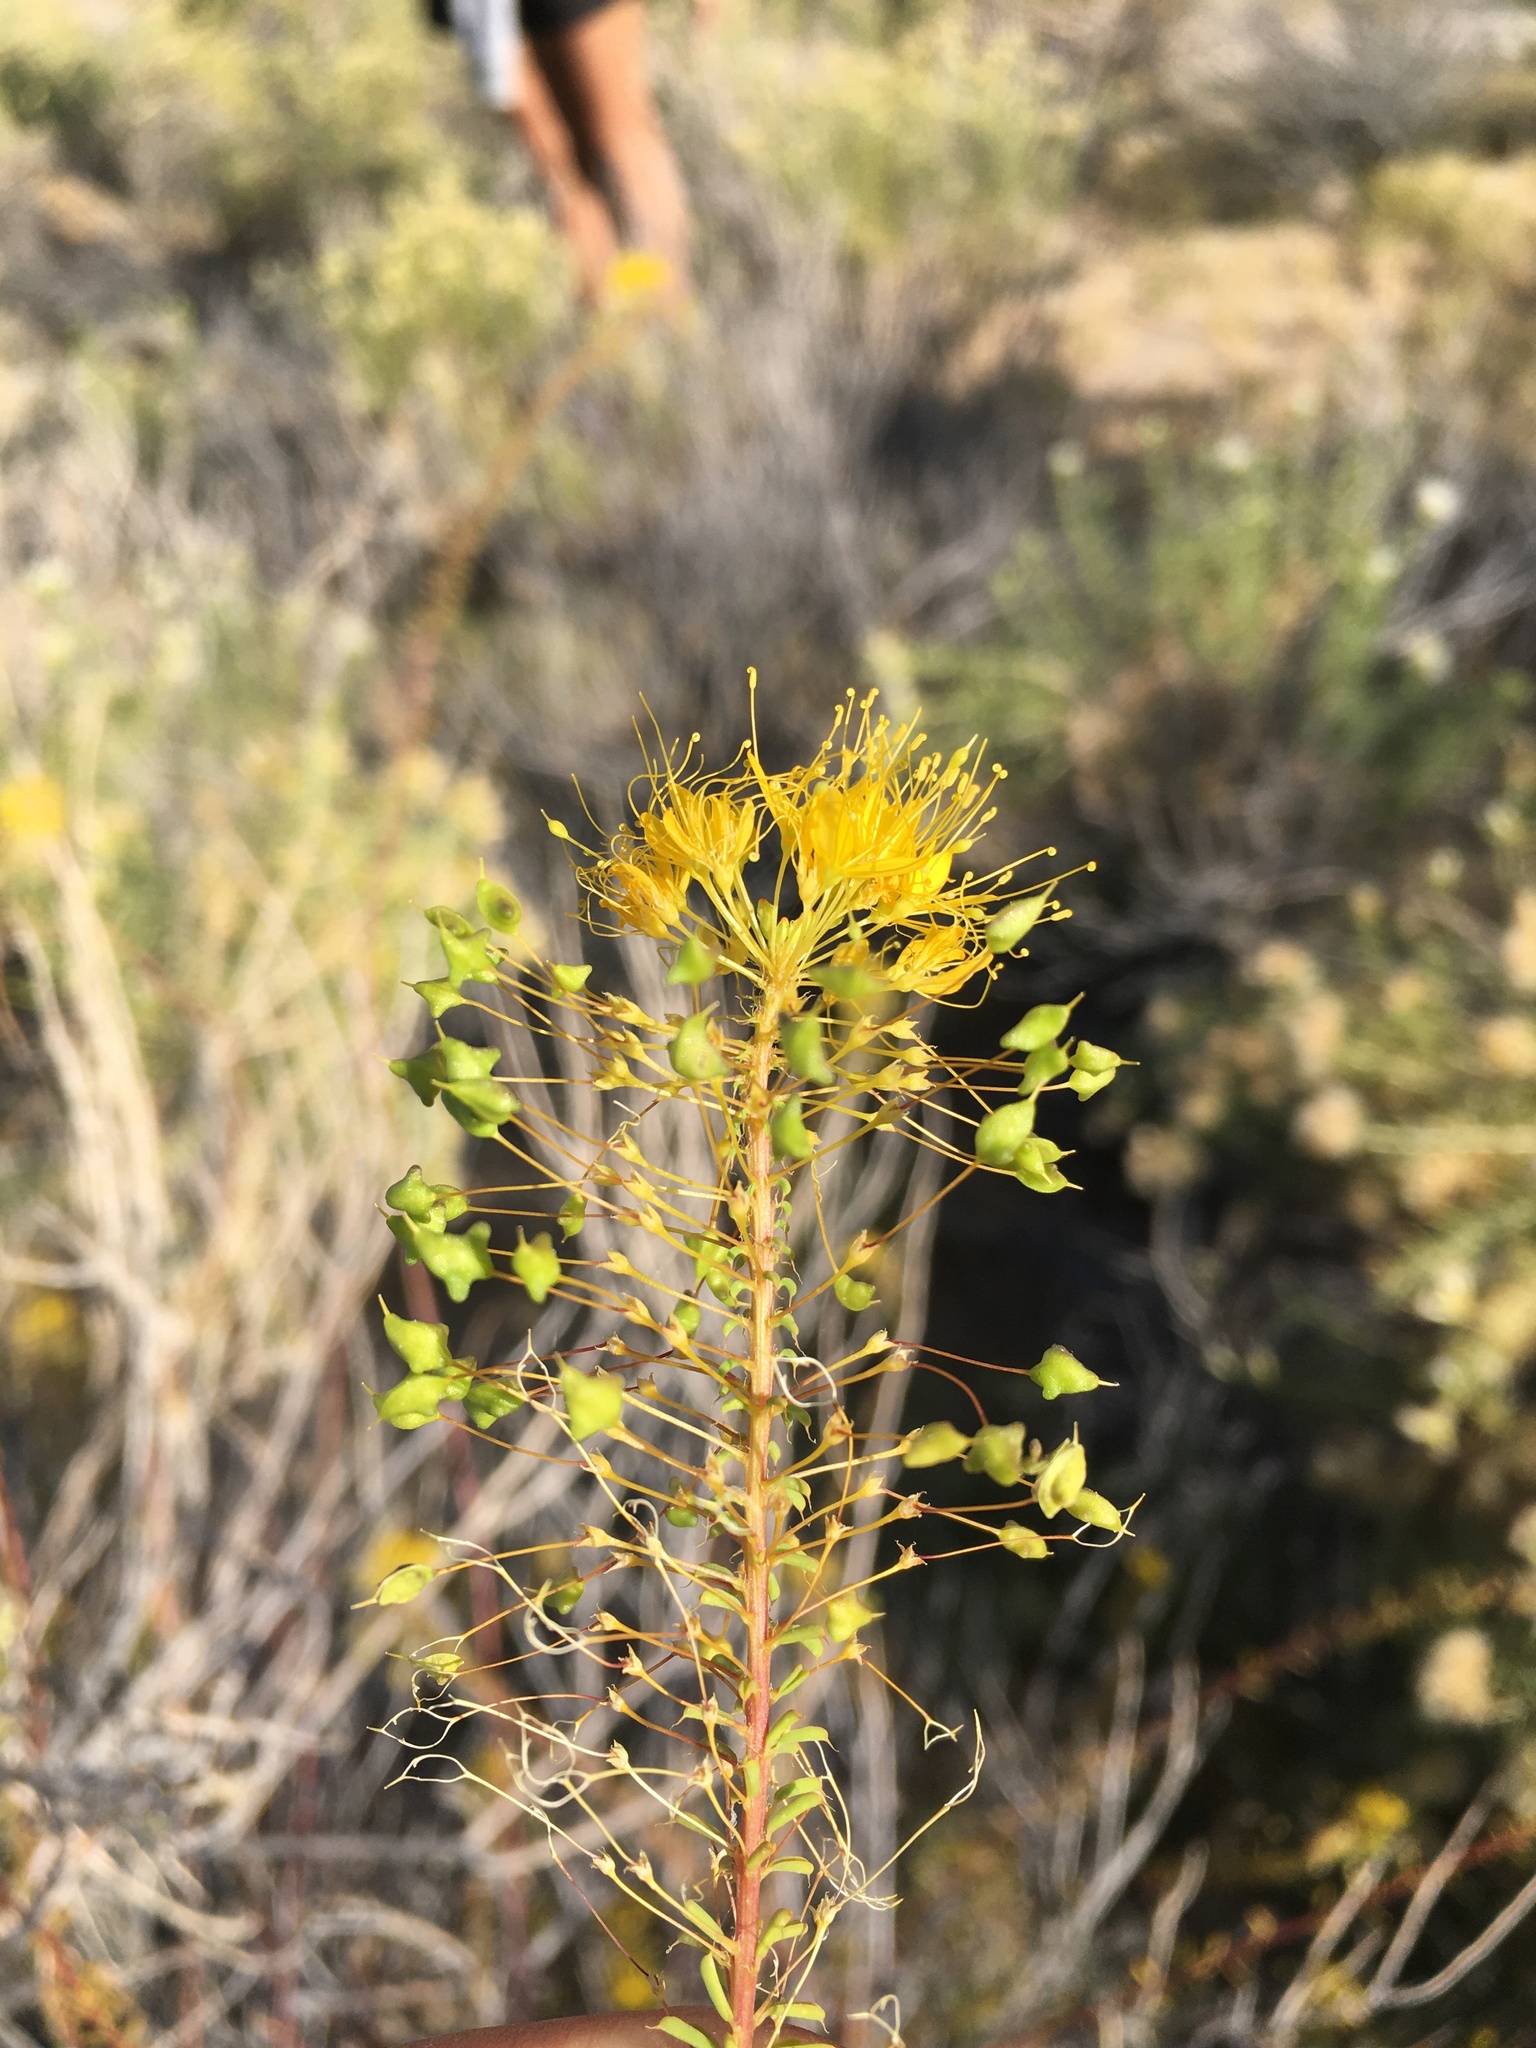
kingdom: Plantae
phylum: Tracheophyta
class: Magnoliopsida
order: Brassicales
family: Cleomaceae
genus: Cleomella
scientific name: Cleomella plocasperma
